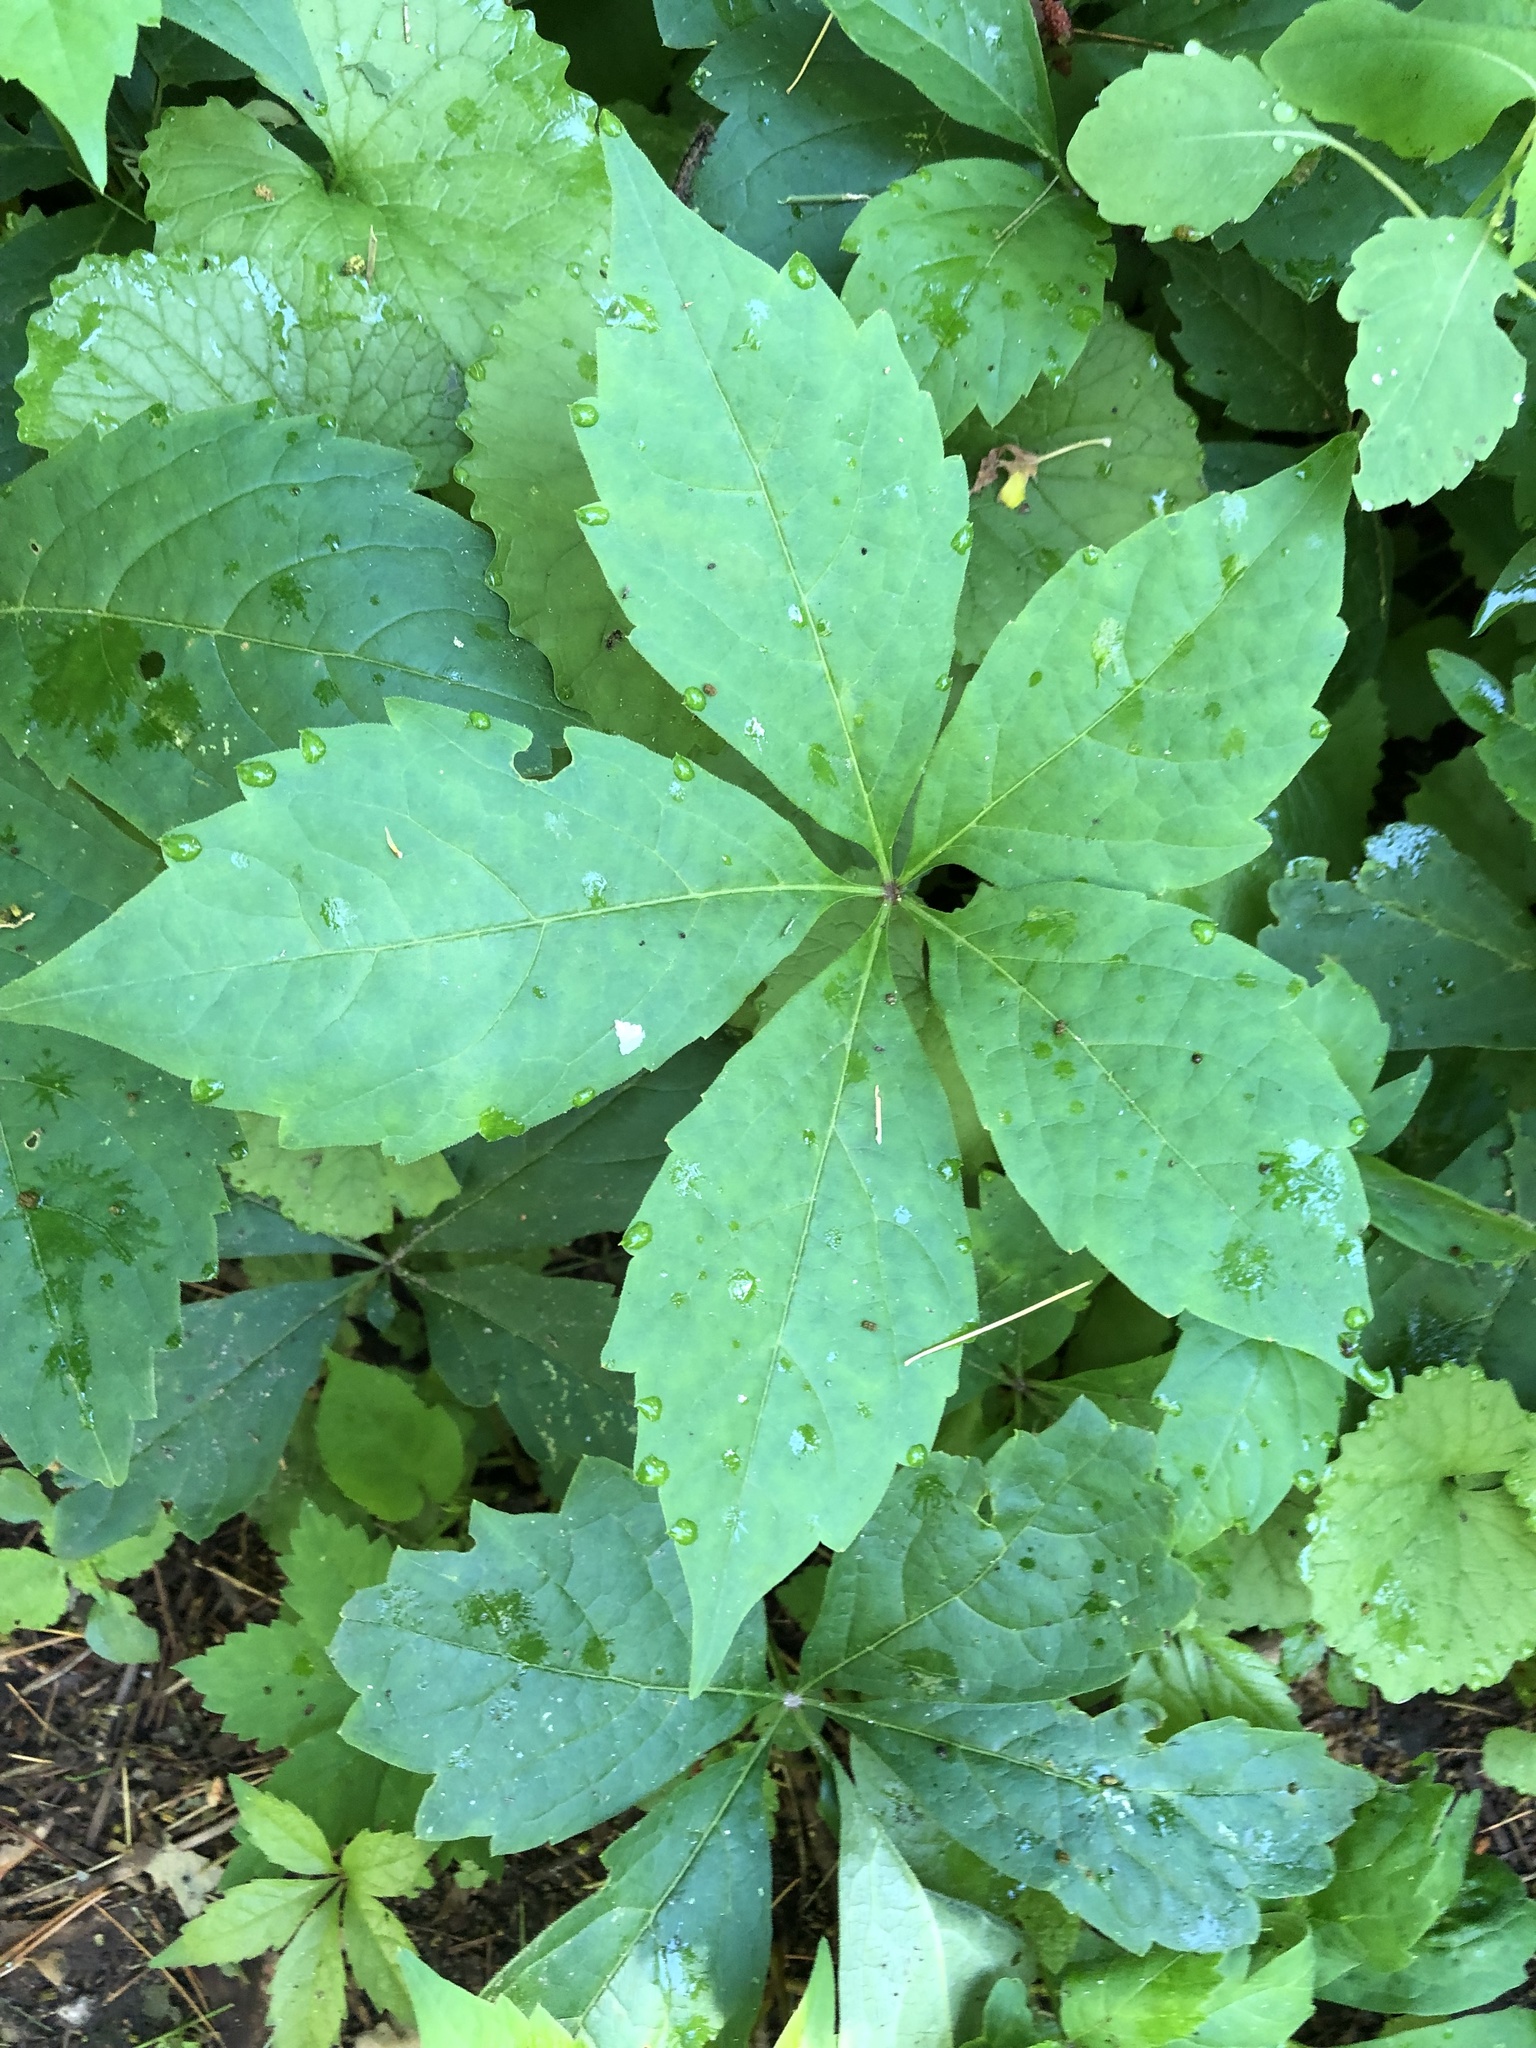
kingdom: Plantae
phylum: Tracheophyta
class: Magnoliopsida
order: Vitales
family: Vitaceae
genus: Parthenocissus
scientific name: Parthenocissus quinquefolia
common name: Virginia-creeper
